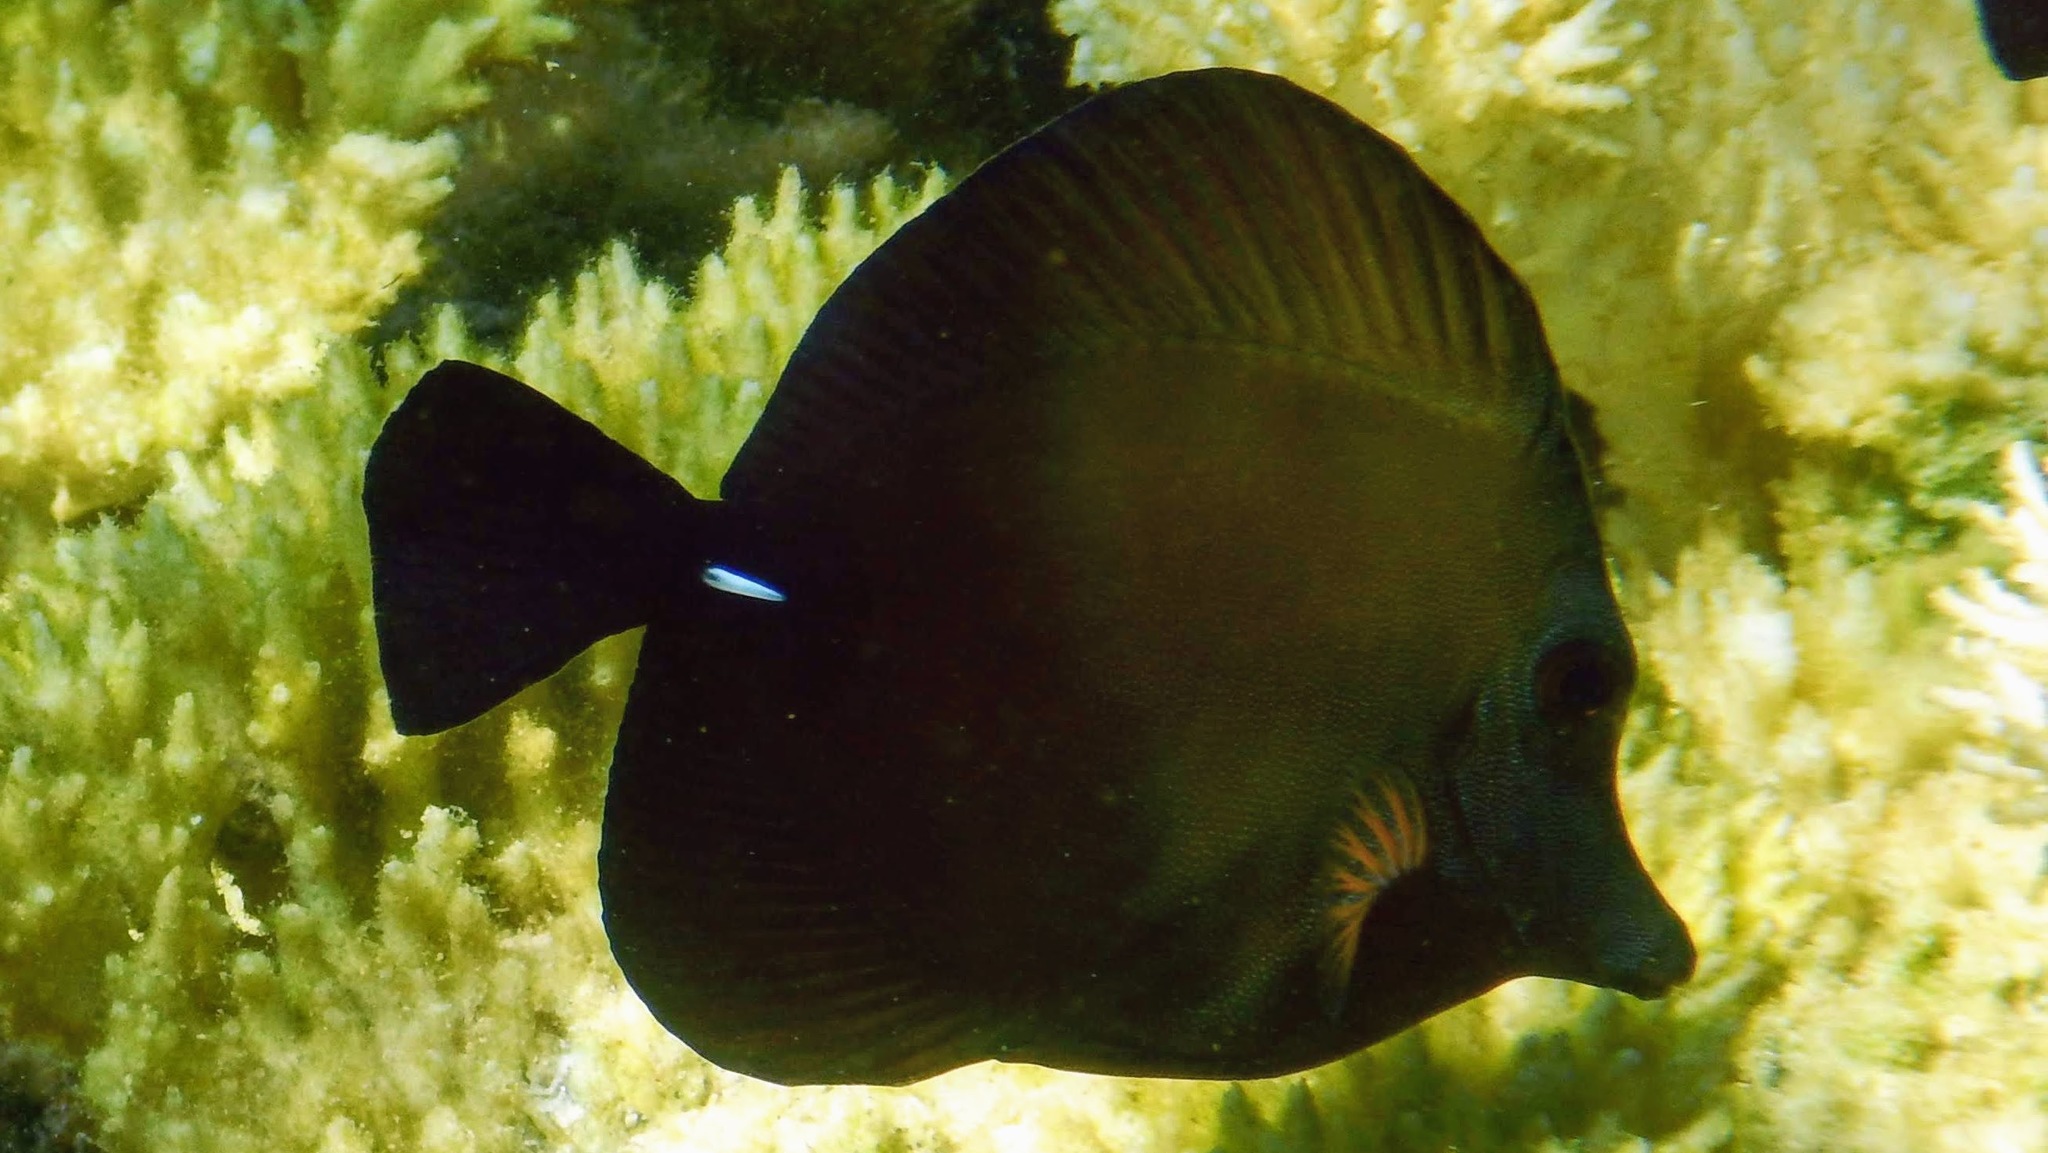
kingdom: Animalia
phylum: Chordata
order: Perciformes
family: Acanthuridae
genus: Zebrasoma
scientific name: Zebrasoma scopas
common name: Twotone tang
